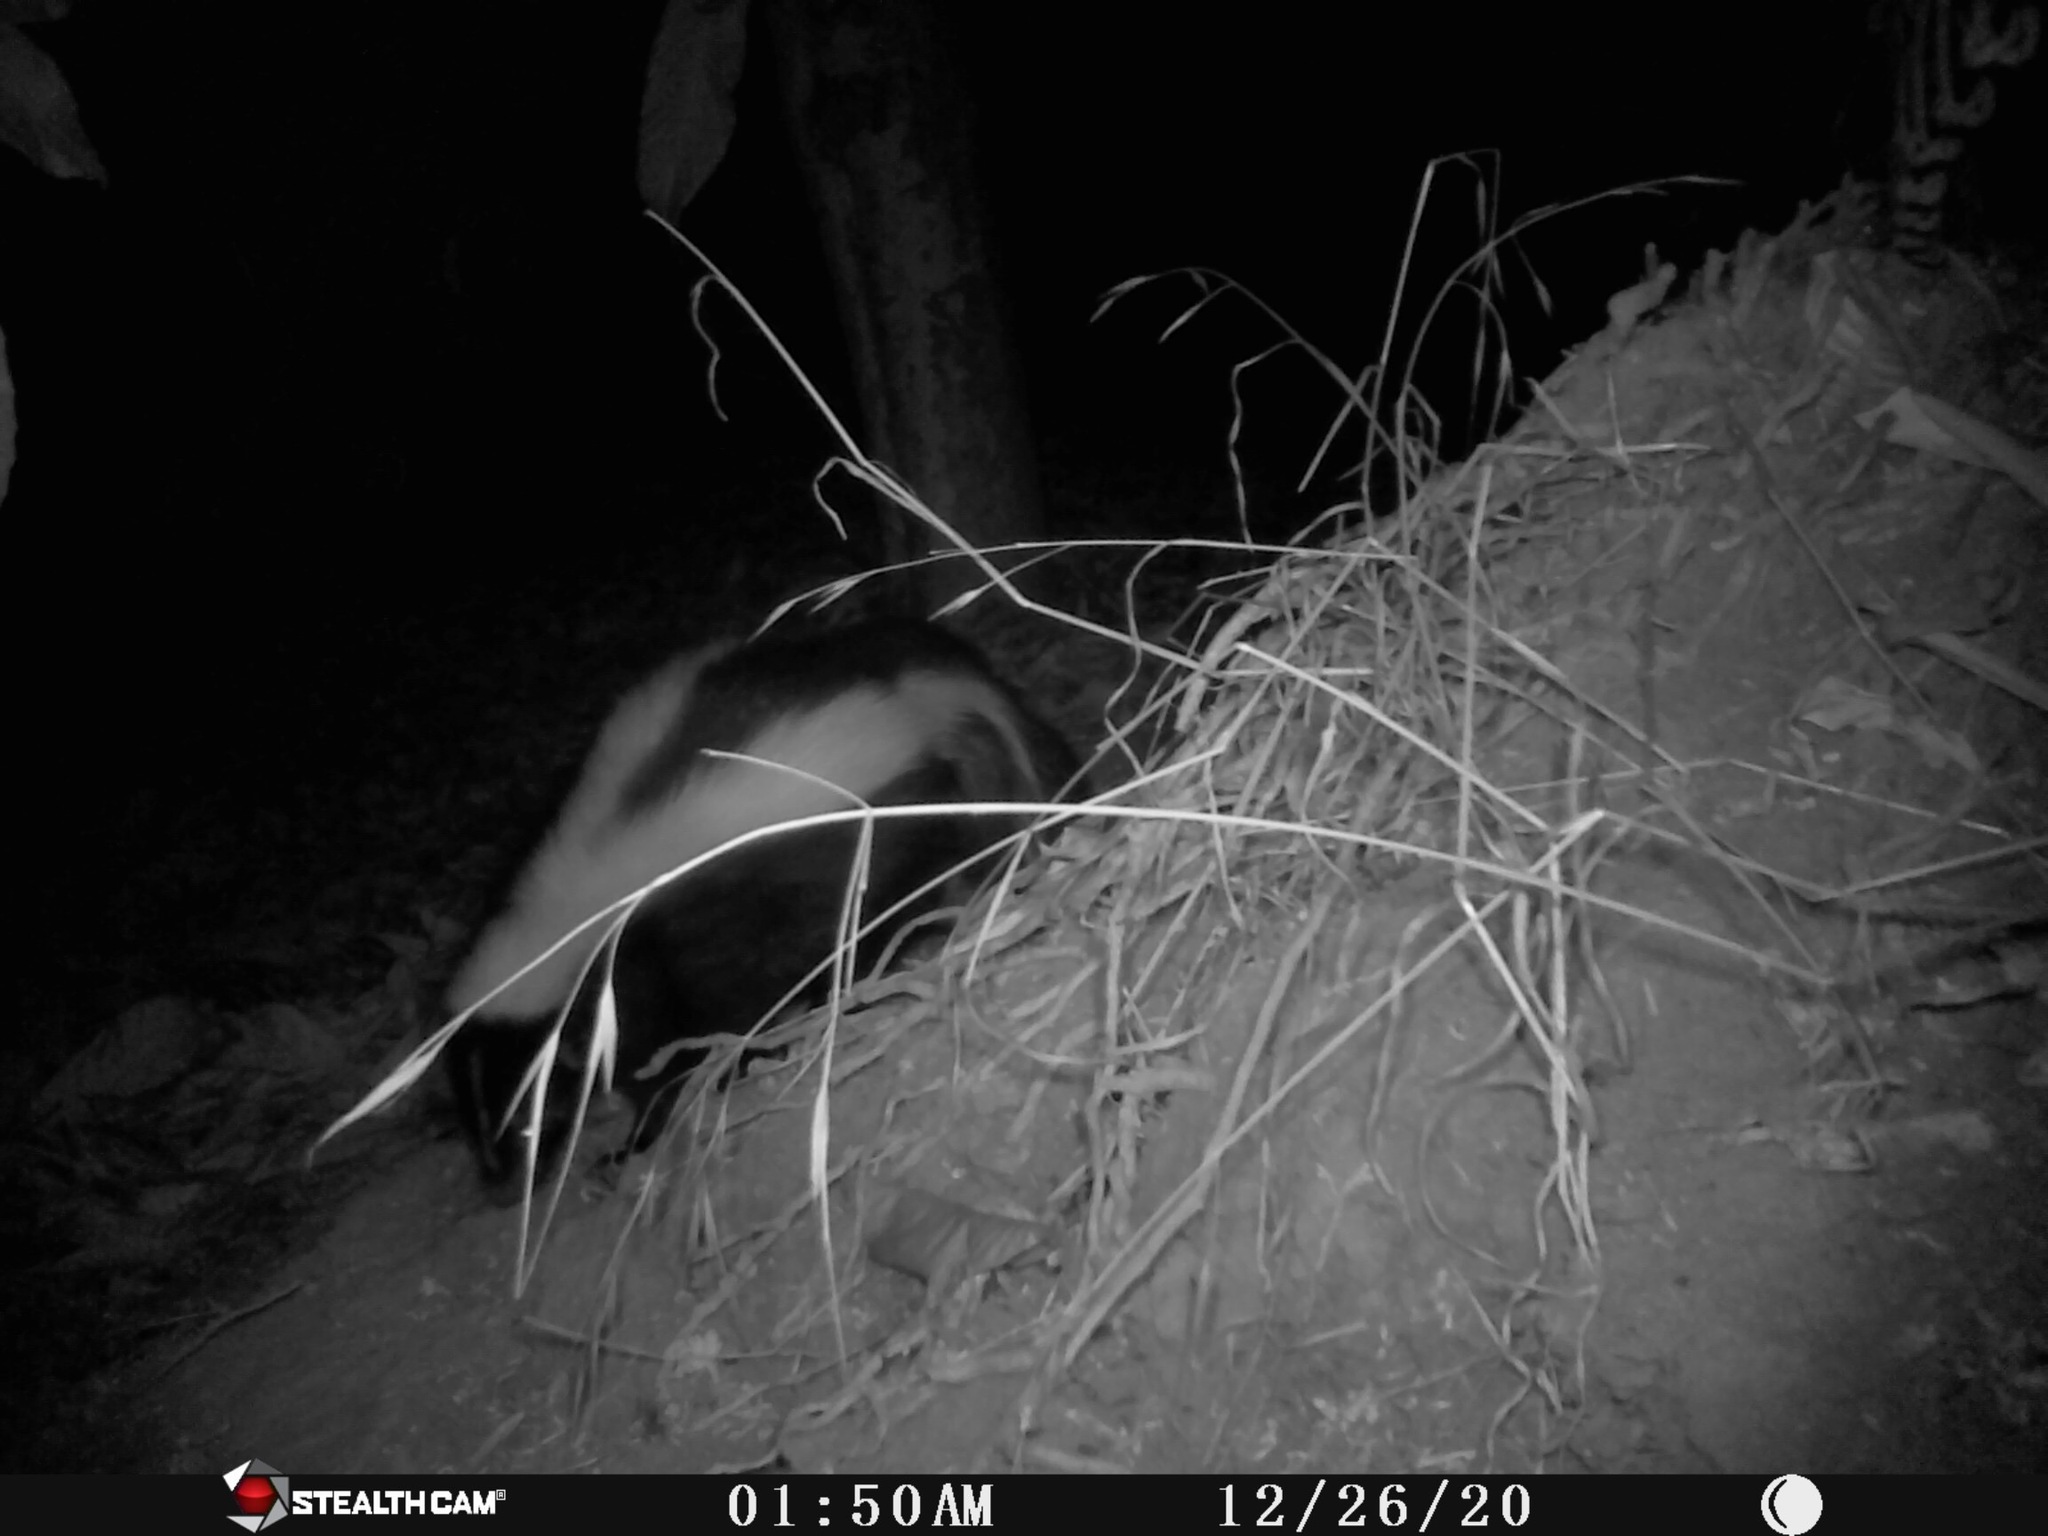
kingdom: Animalia
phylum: Chordata
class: Mammalia
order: Carnivora
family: Mephitidae
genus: Mephitis
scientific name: Mephitis mephitis
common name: Striped skunk
